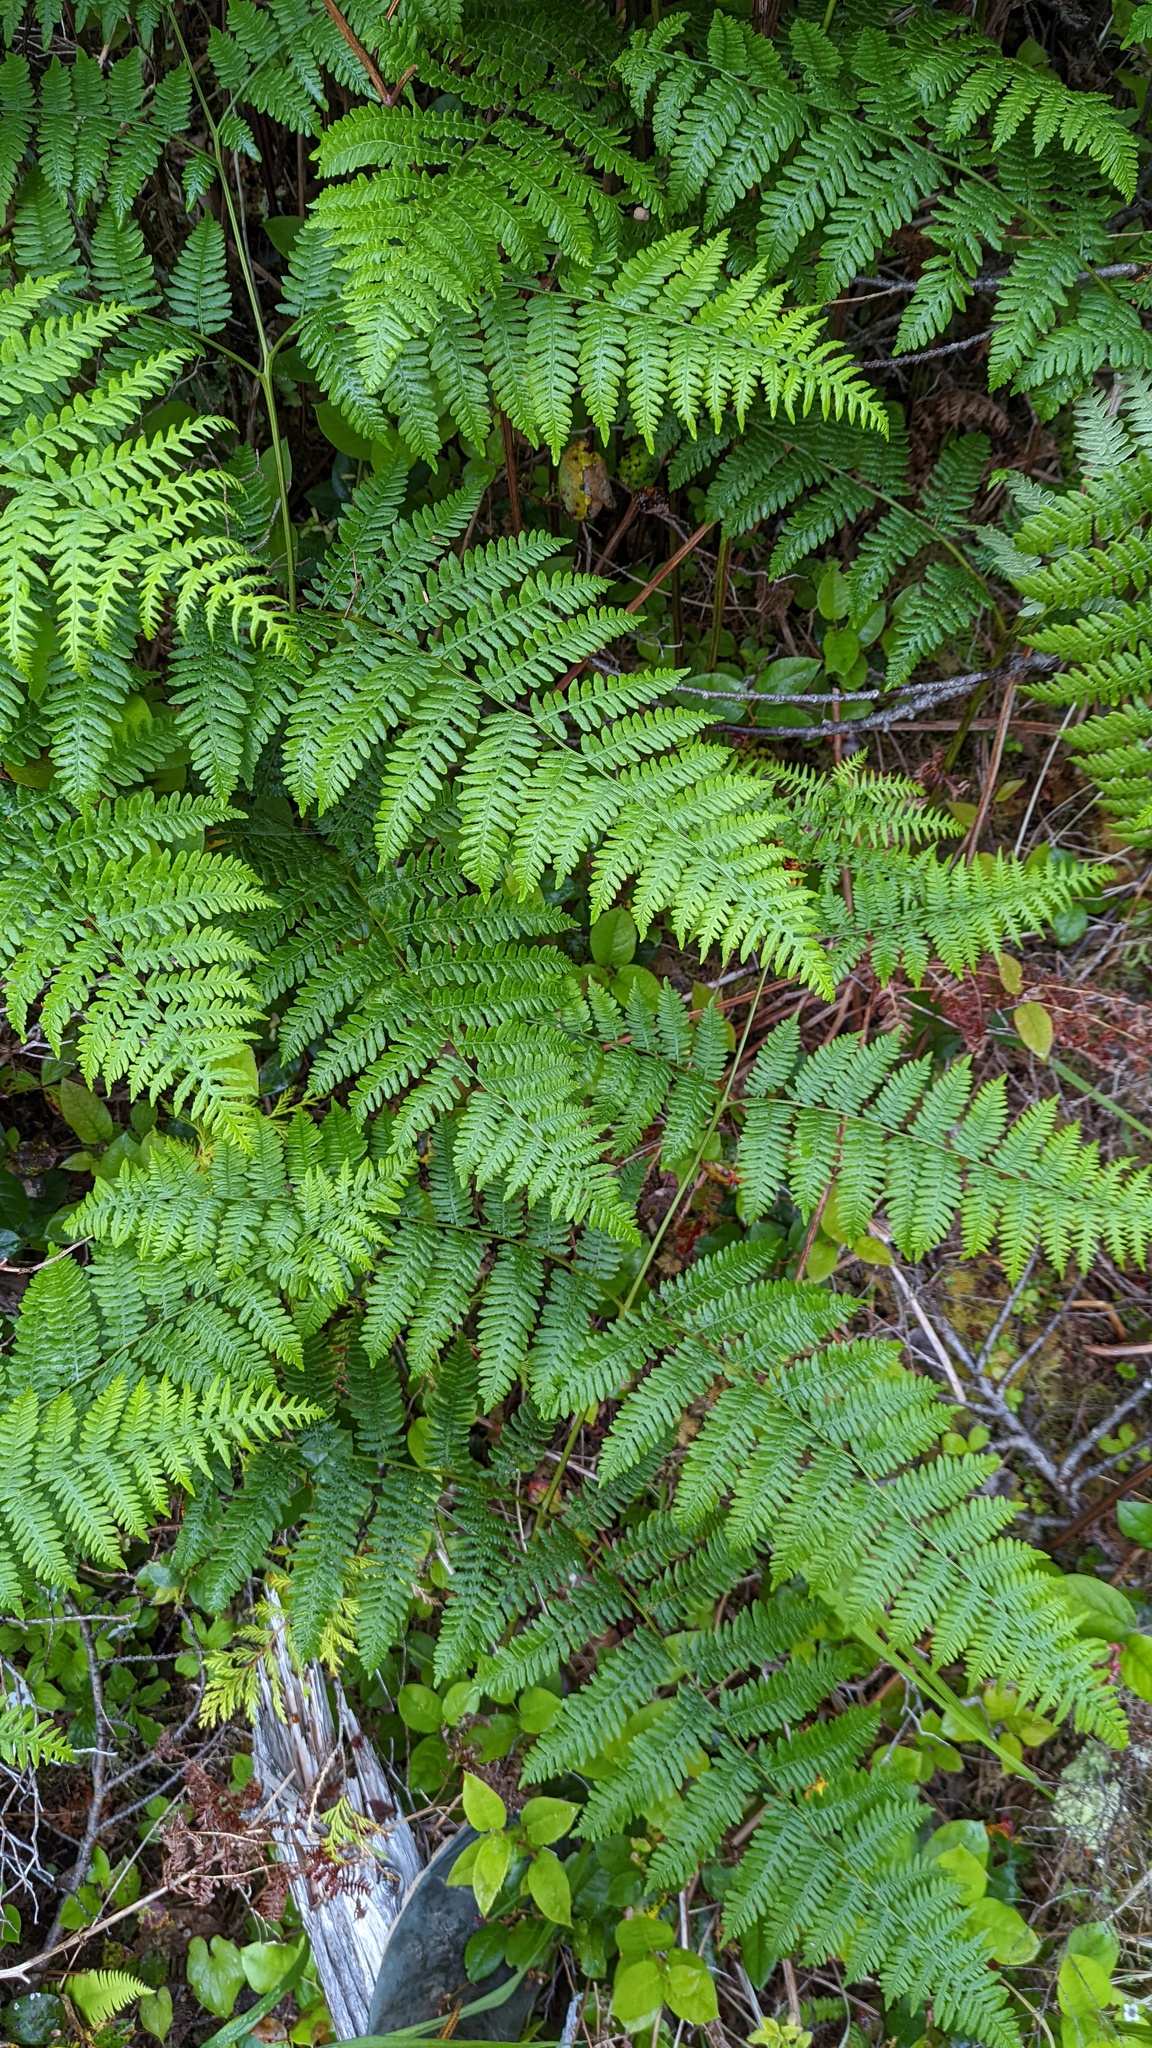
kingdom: Plantae
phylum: Tracheophyta
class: Polypodiopsida
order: Polypodiales
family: Dennstaedtiaceae
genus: Pteridium
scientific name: Pteridium aquilinum
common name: Bracken
